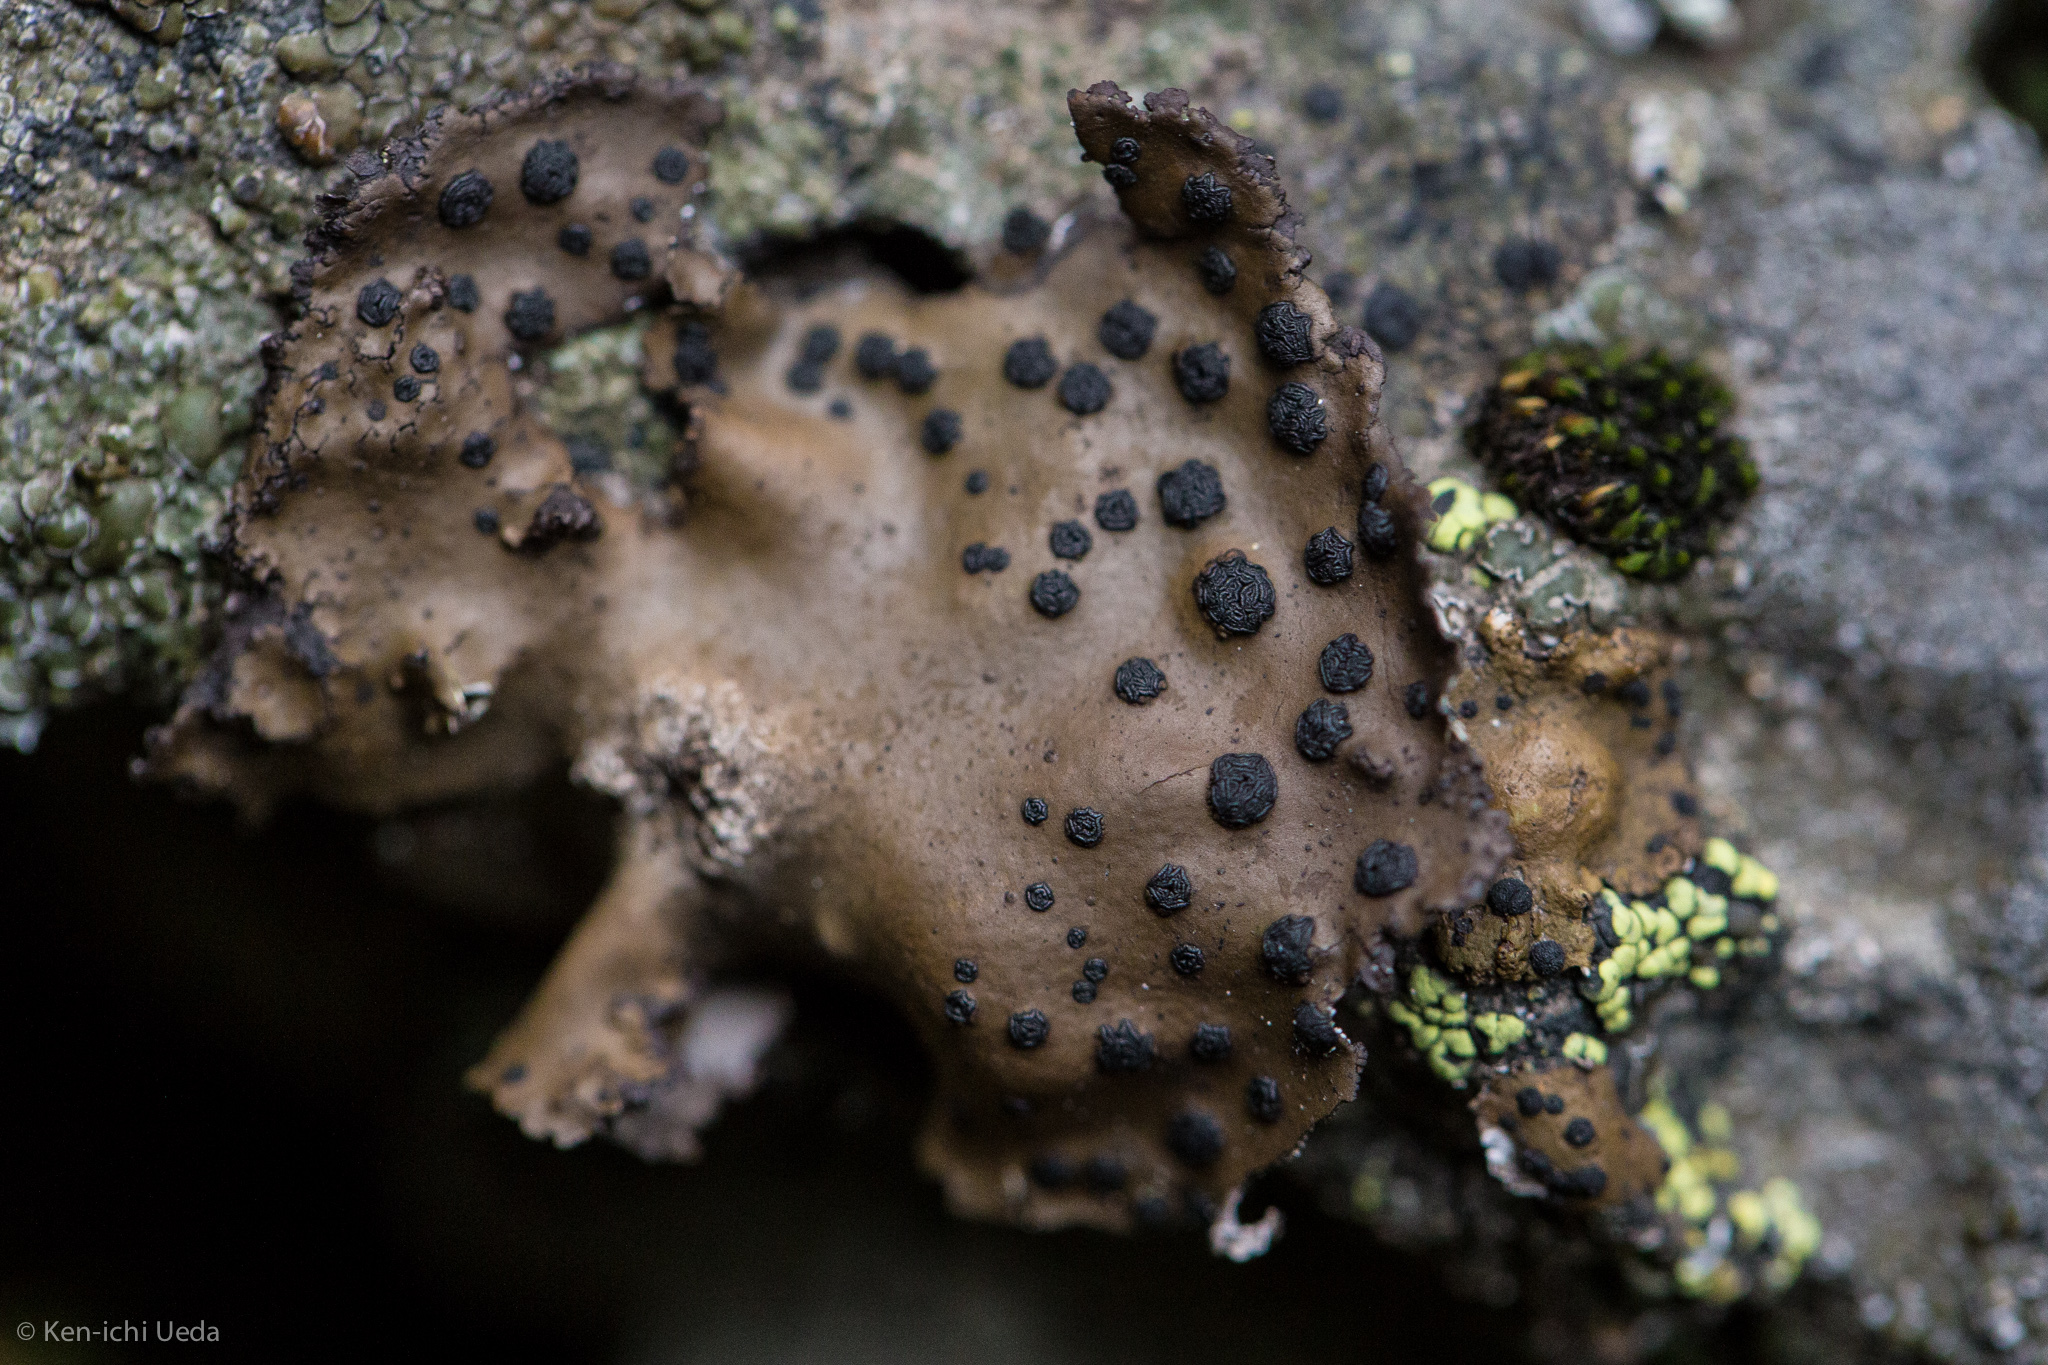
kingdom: Fungi
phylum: Ascomycota
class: Lecanoromycetes
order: Umbilicariales
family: Umbilicariaceae
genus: Umbilicaria
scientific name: Umbilicaria phaea
